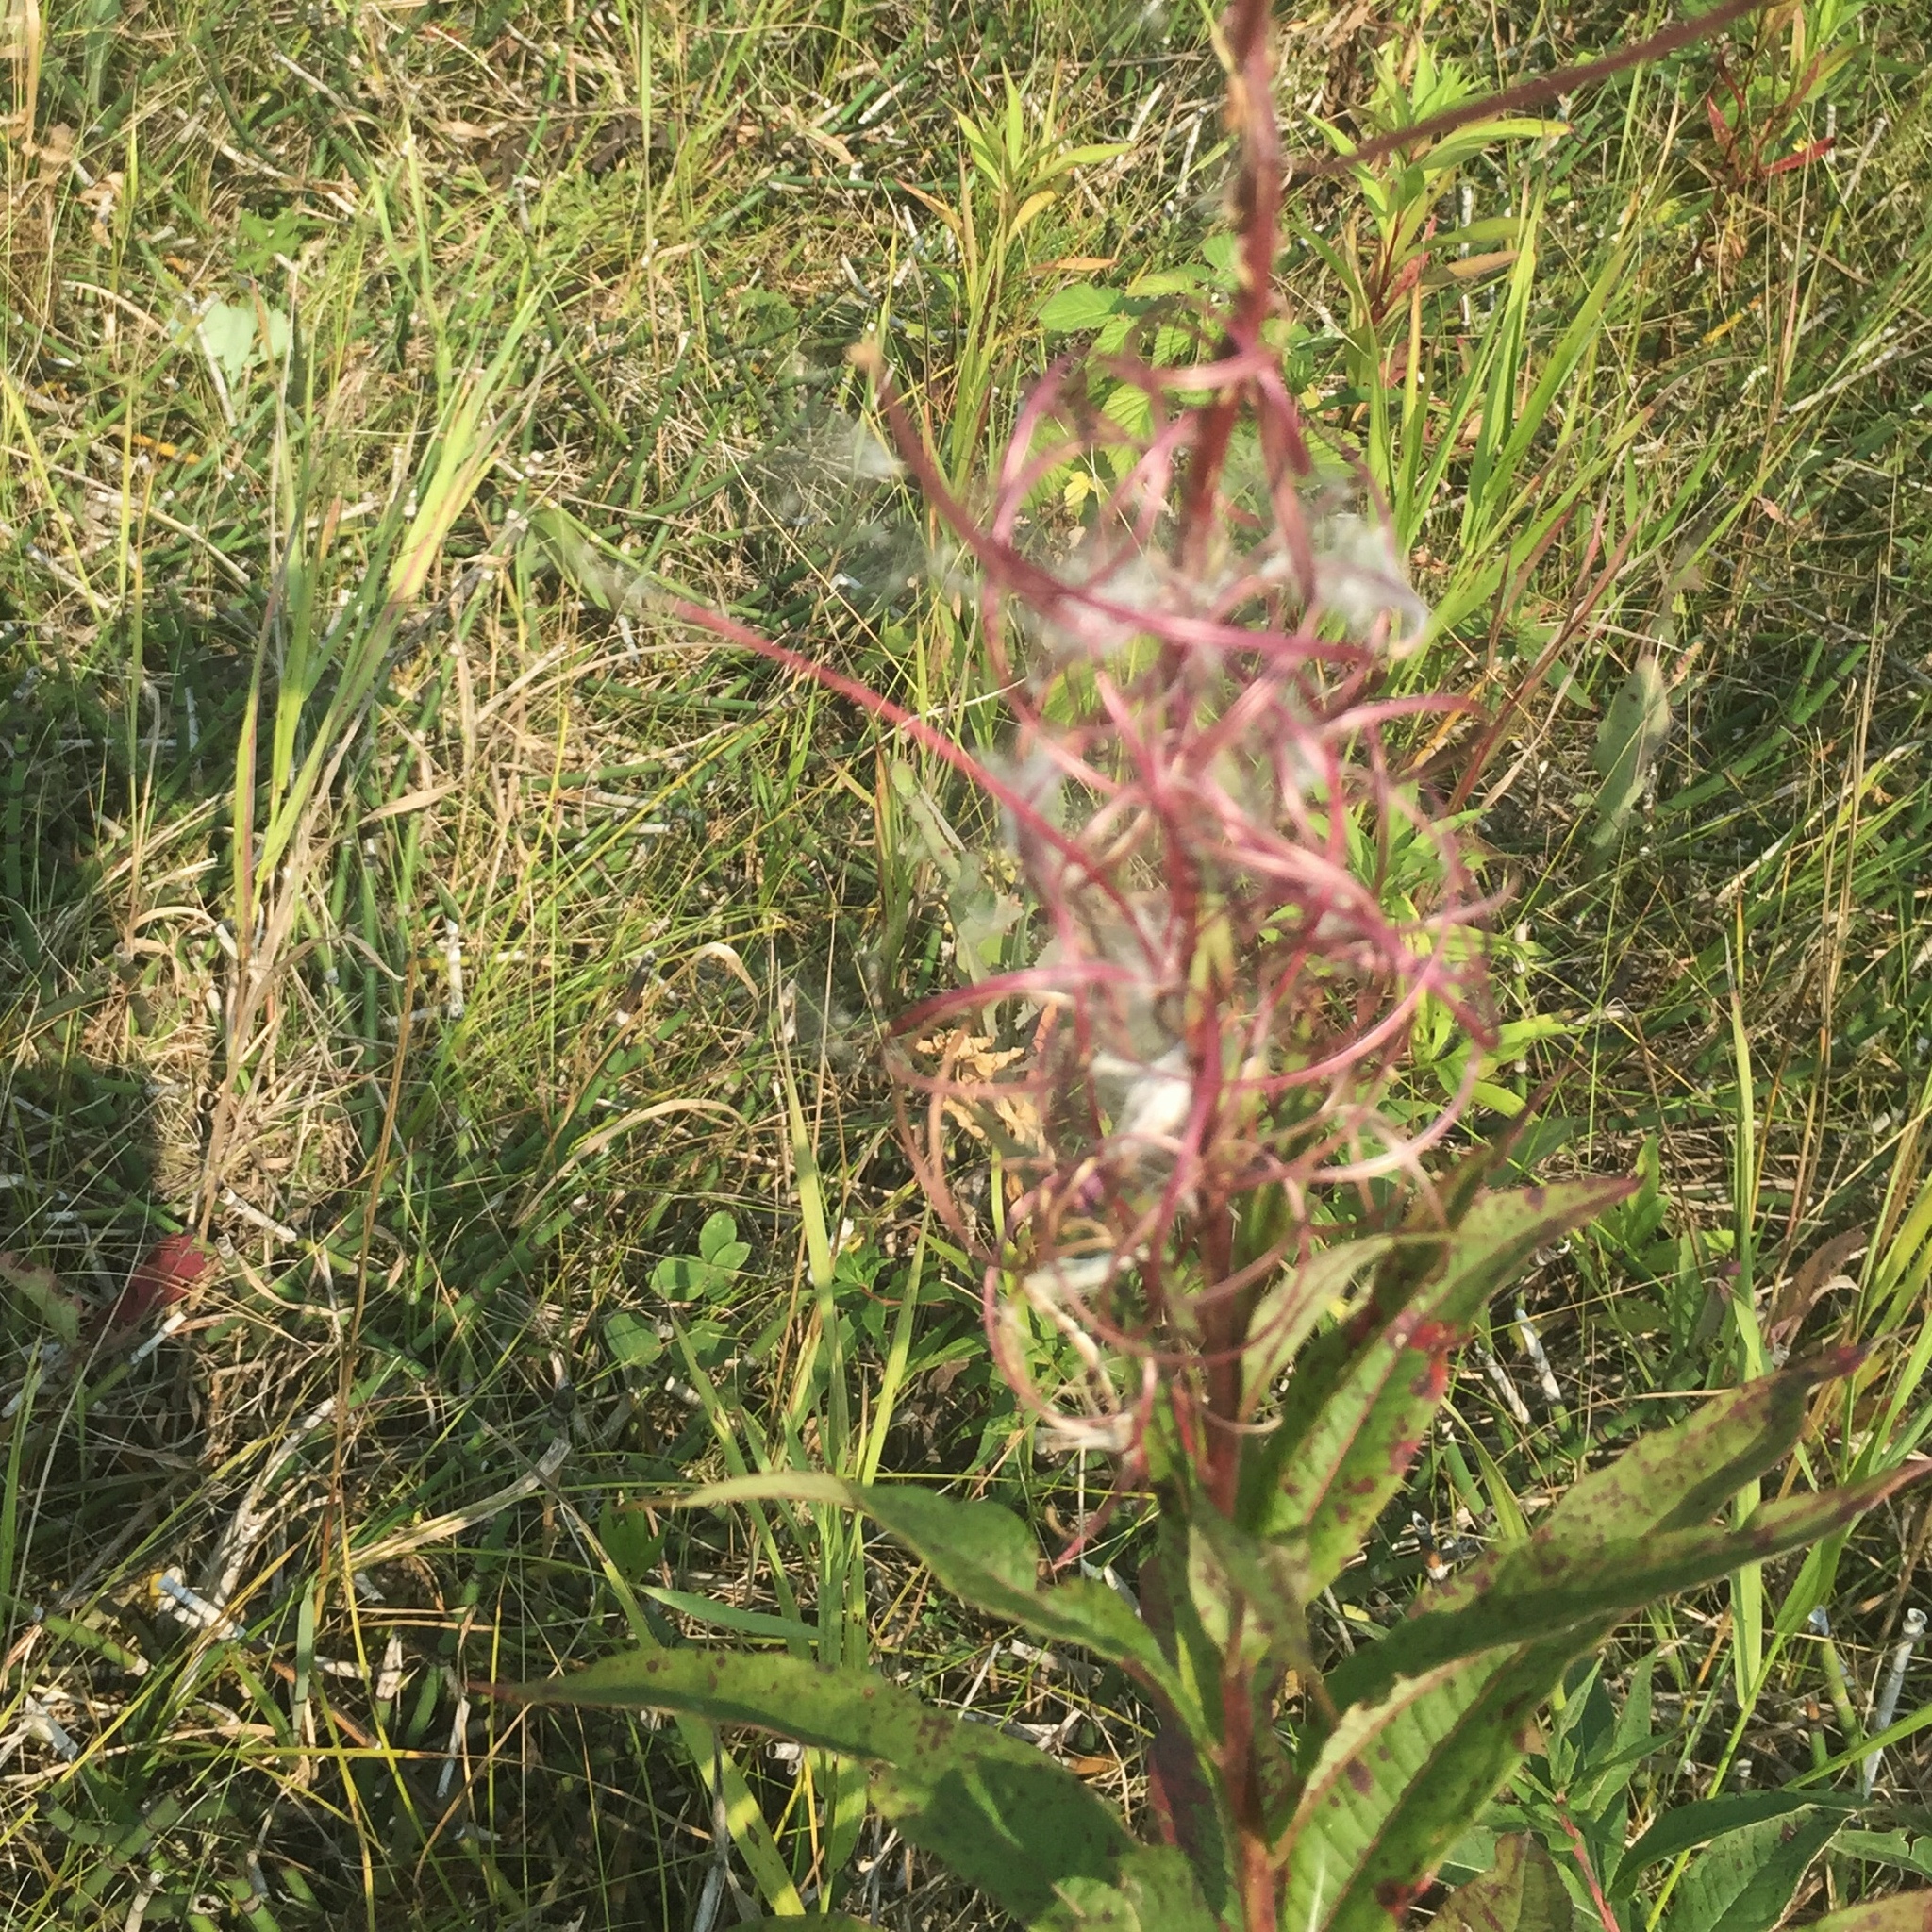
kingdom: Plantae
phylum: Tracheophyta
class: Magnoliopsida
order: Myrtales
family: Onagraceae
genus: Chamaenerion
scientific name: Chamaenerion angustifolium
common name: Fireweed
